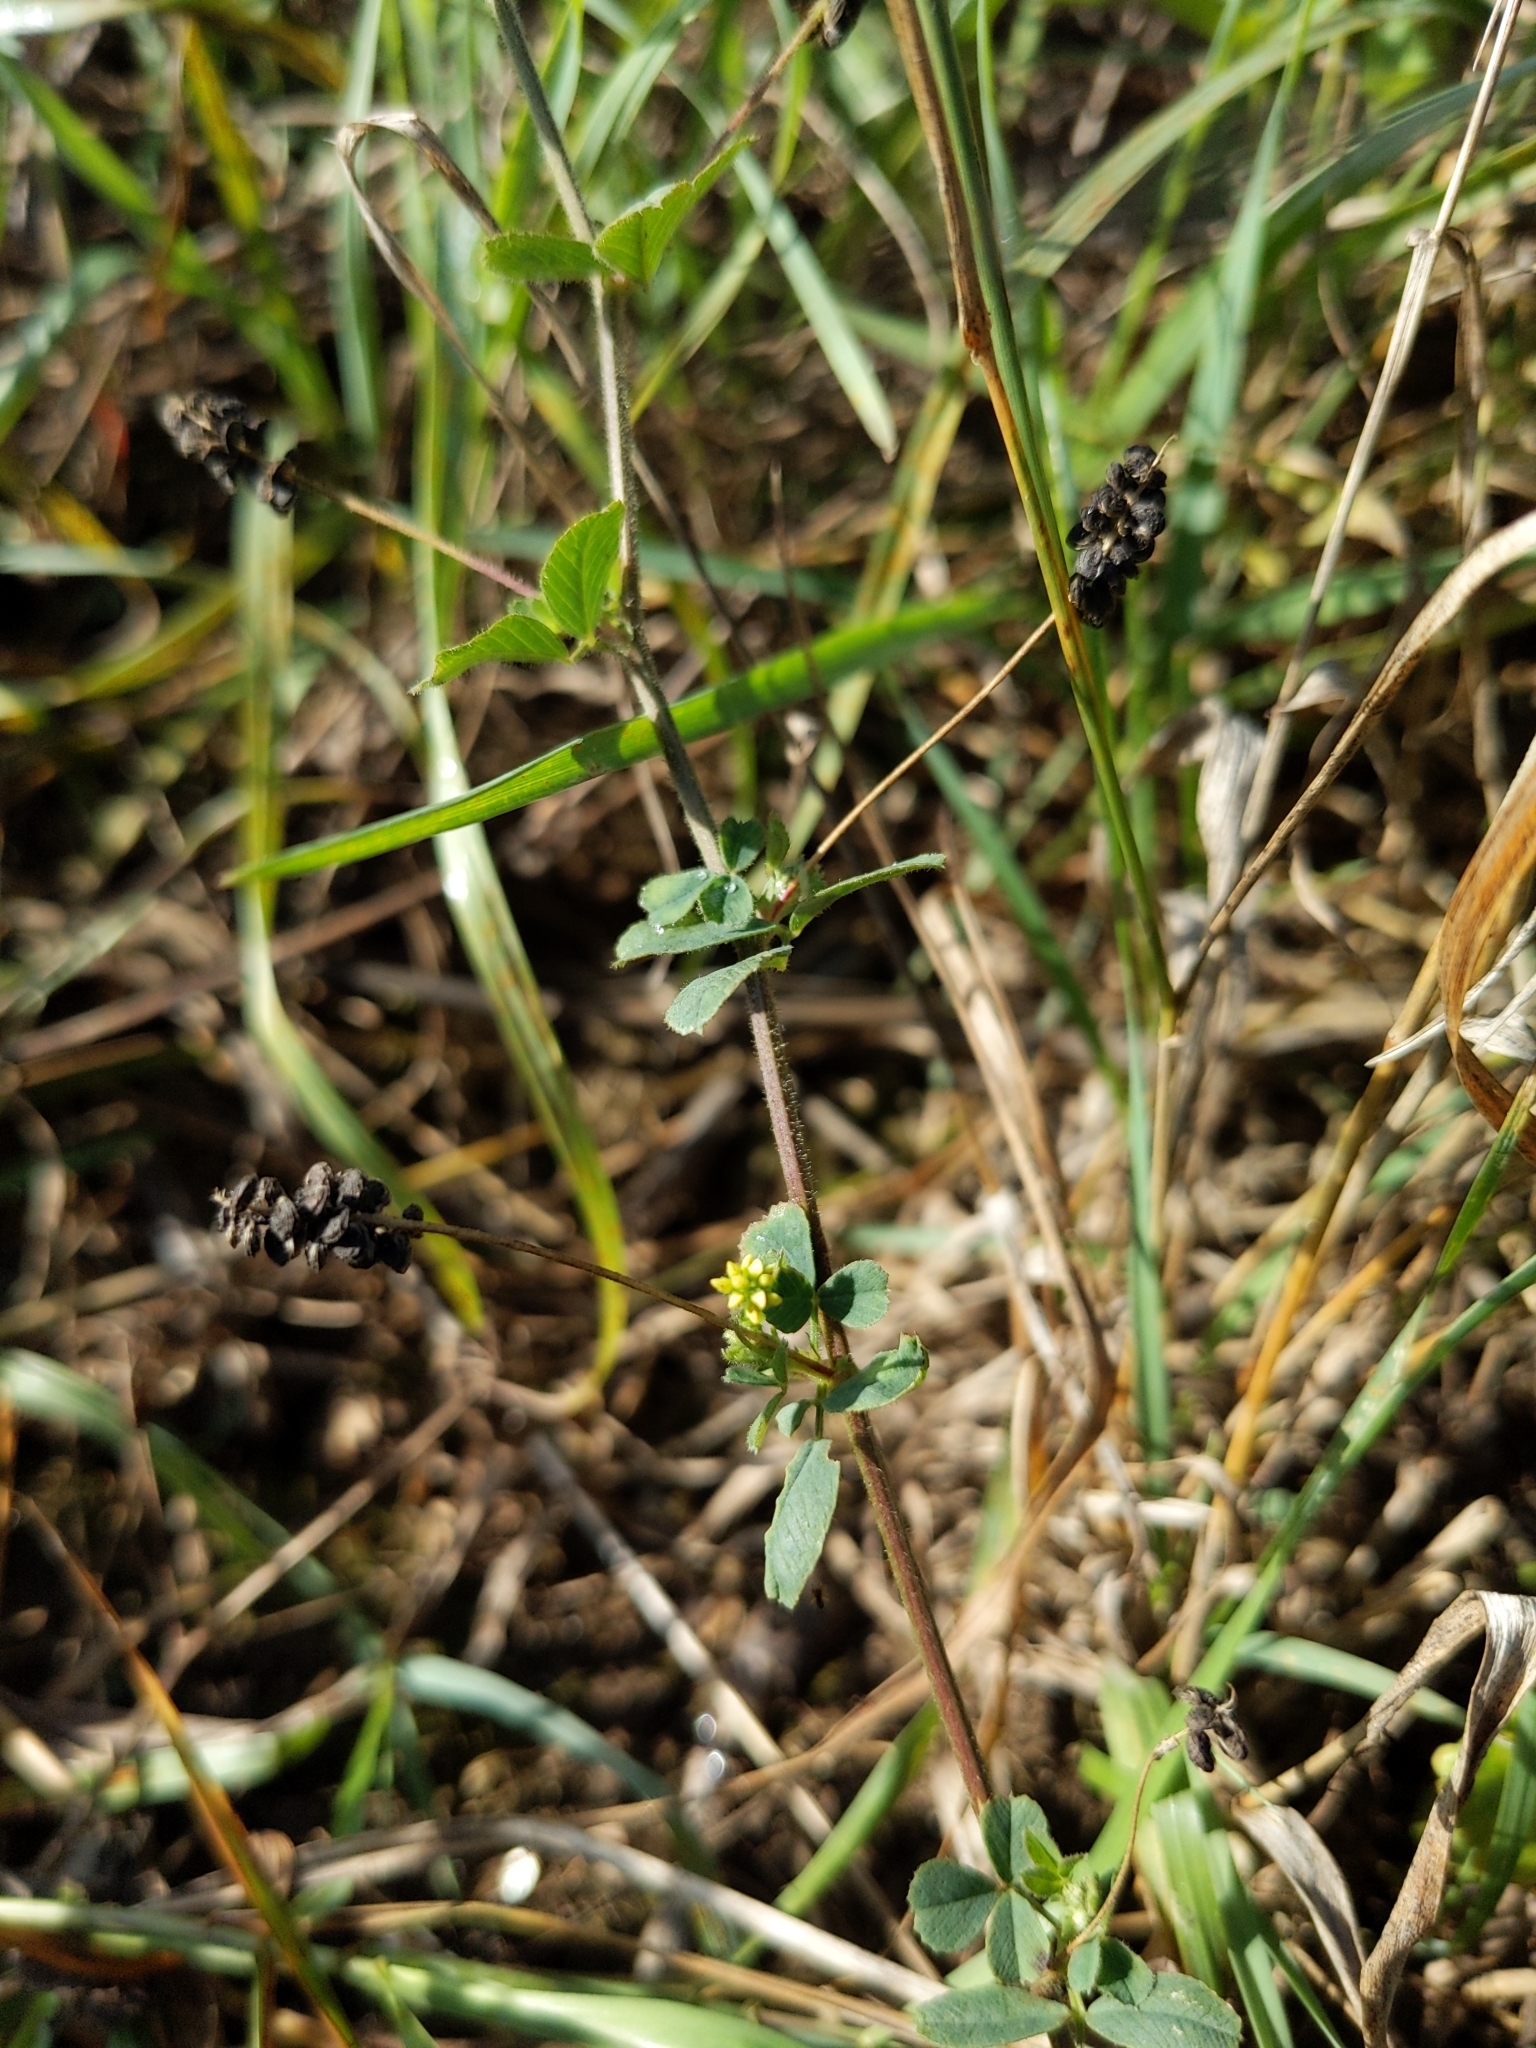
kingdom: Plantae
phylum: Tracheophyta
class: Magnoliopsida
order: Fabales
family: Fabaceae
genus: Medicago
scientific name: Medicago lupulina
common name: Black medick
